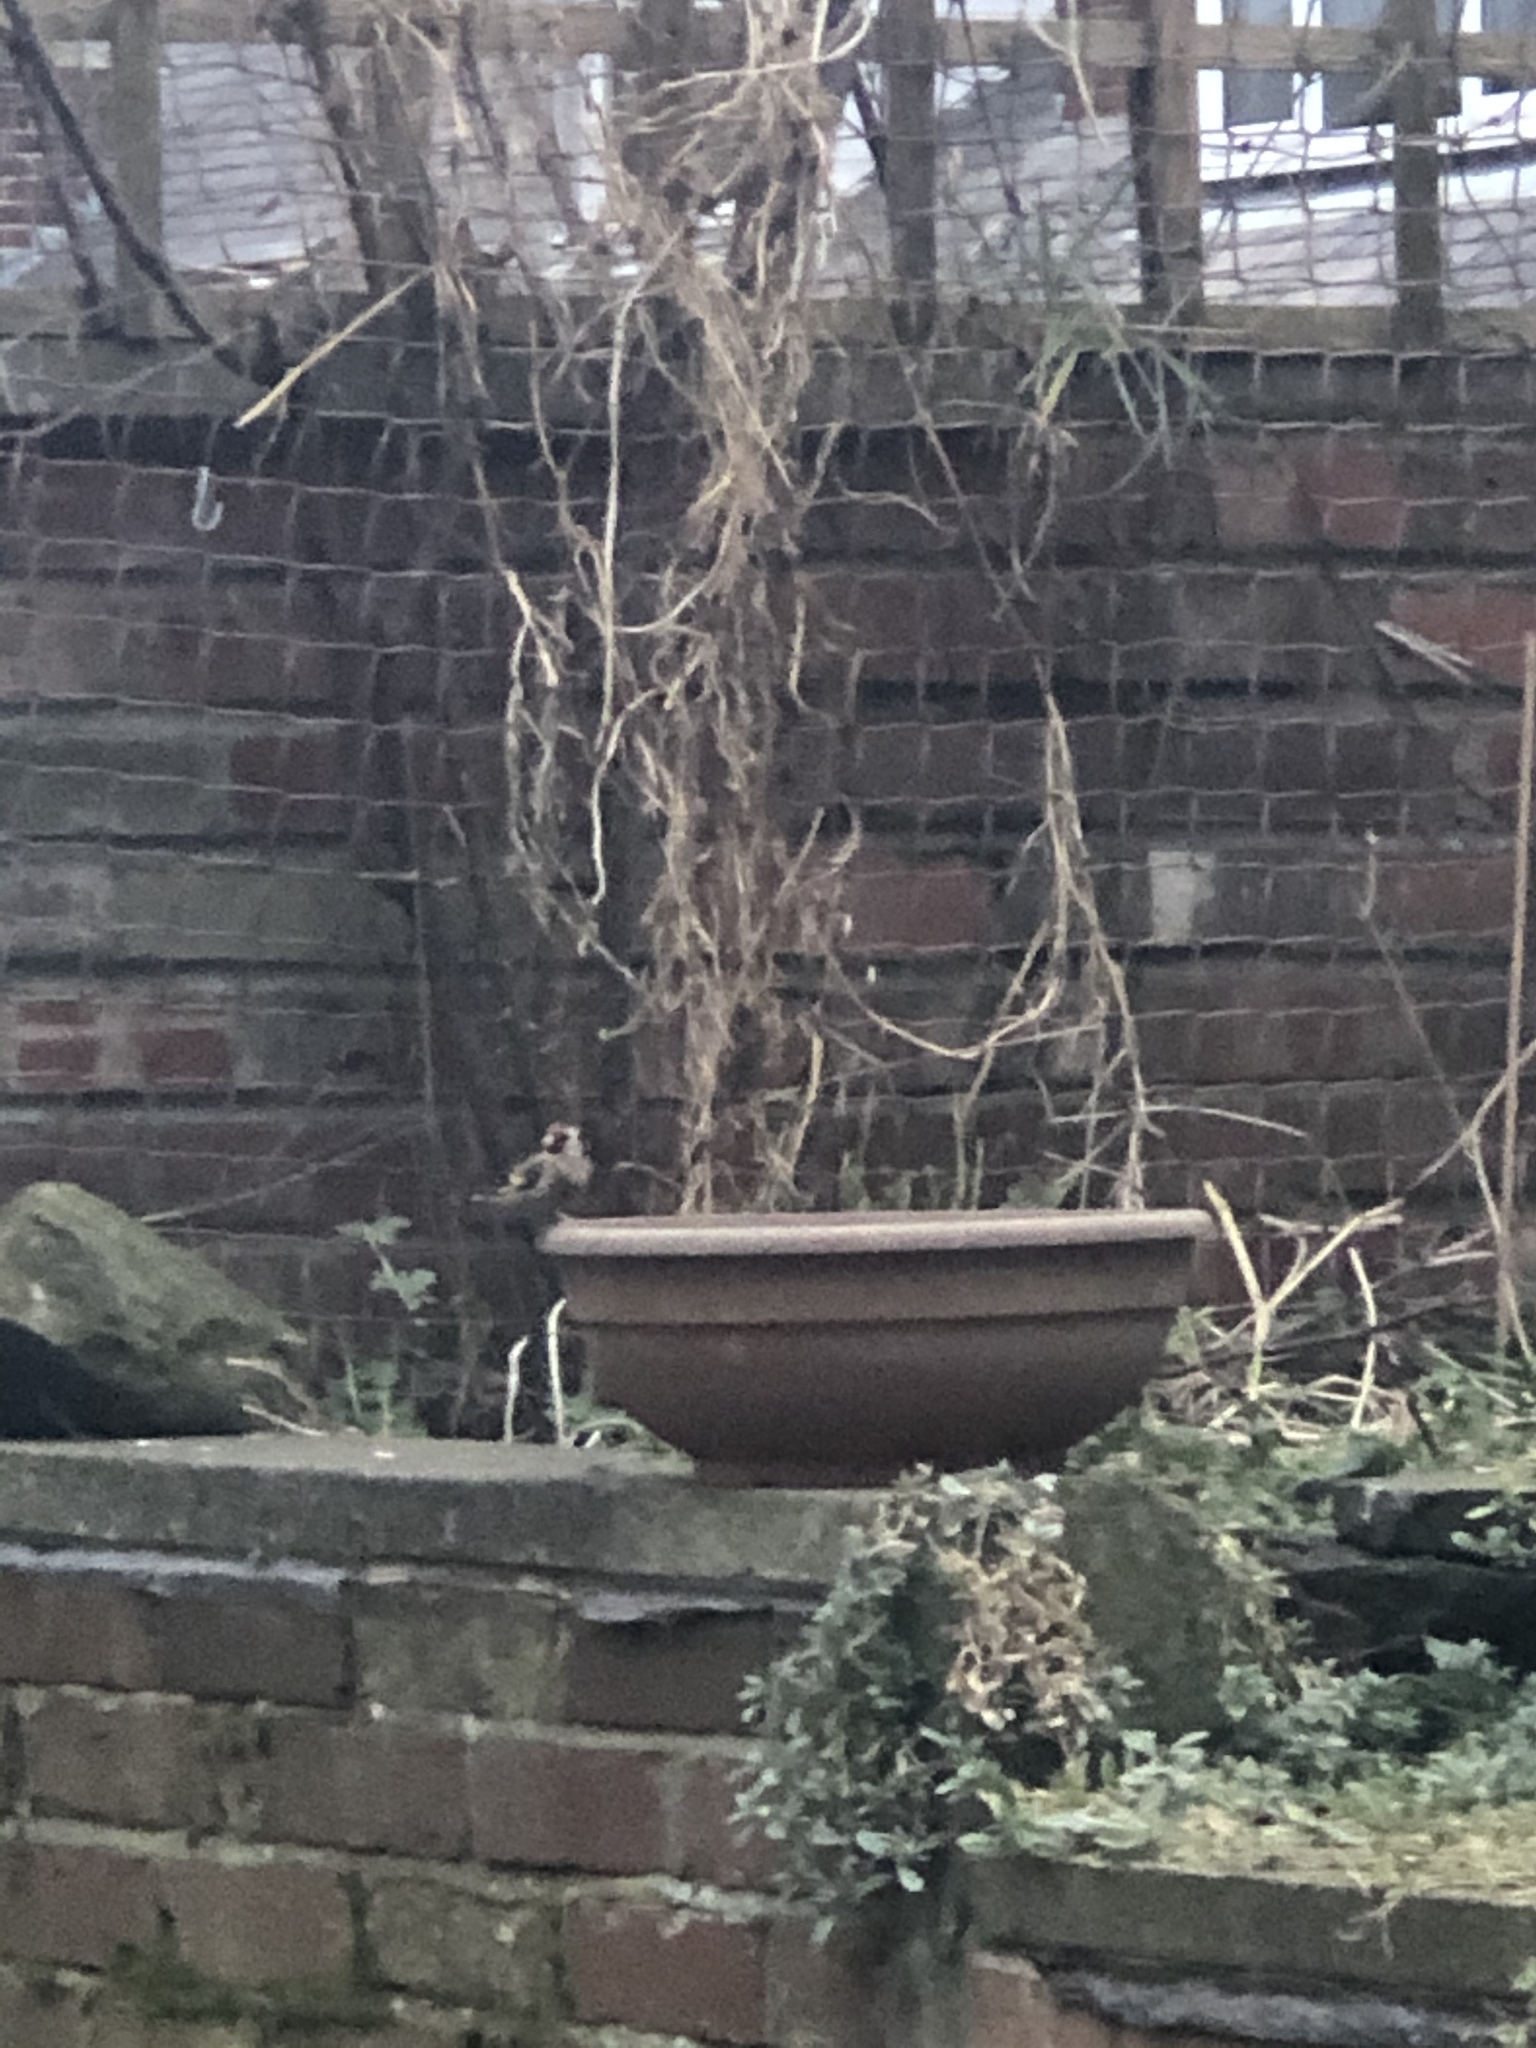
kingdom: Animalia
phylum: Chordata
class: Aves
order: Passeriformes
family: Fringillidae
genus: Carduelis
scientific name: Carduelis carduelis
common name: European goldfinch
